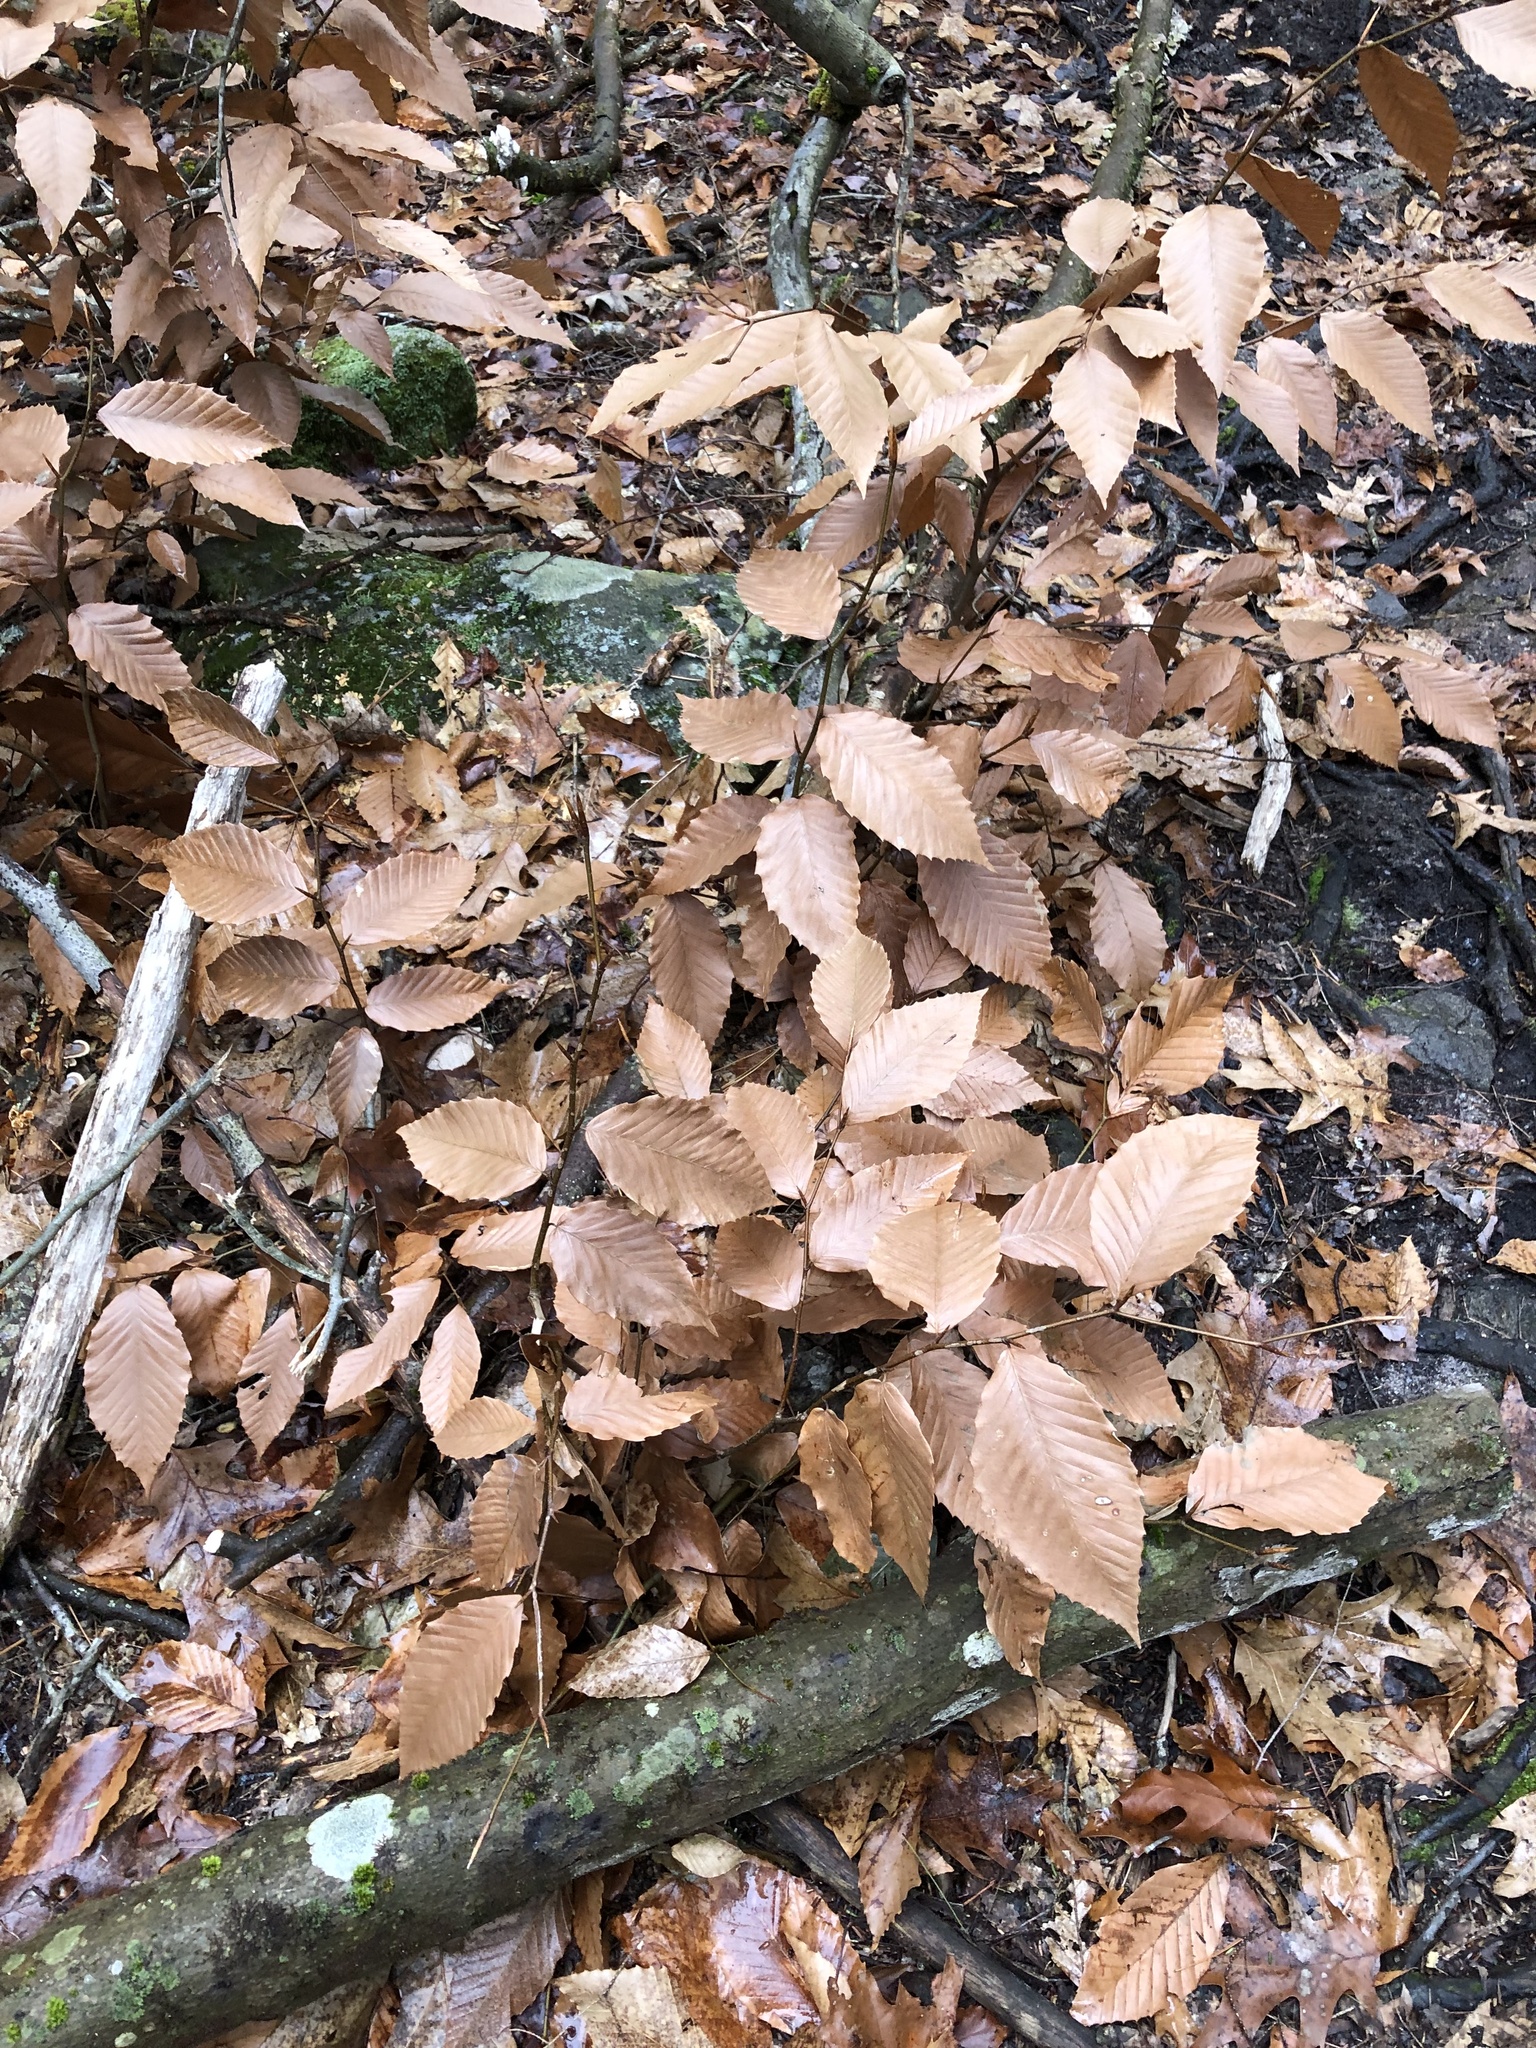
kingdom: Plantae
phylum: Tracheophyta
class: Magnoliopsida
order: Fagales
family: Fagaceae
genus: Fagus
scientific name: Fagus grandifolia
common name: American beech
